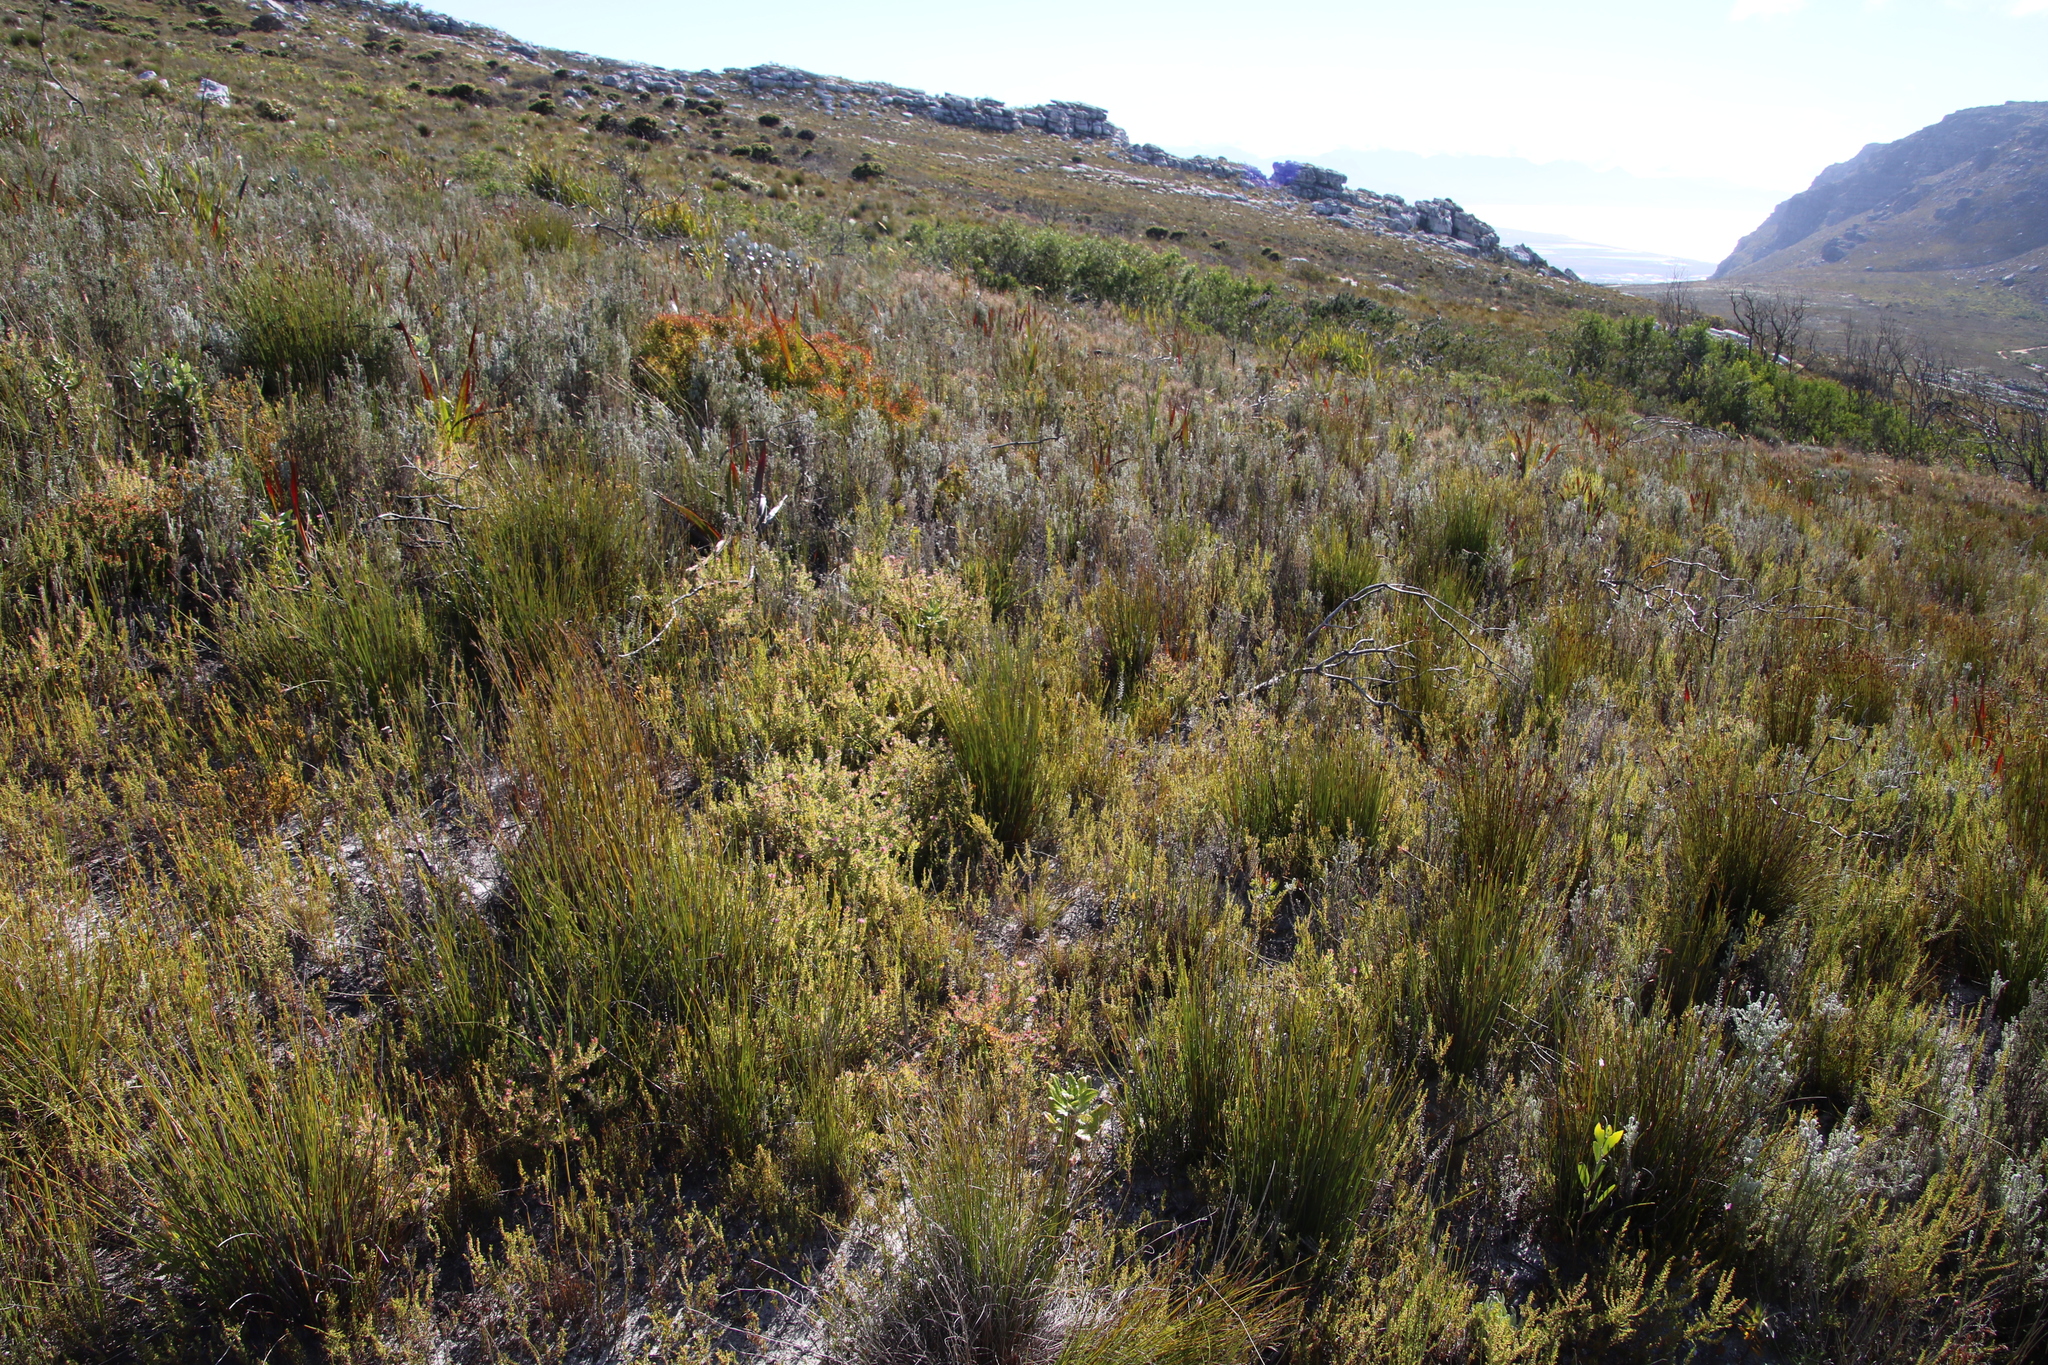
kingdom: Plantae
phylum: Tracheophyta
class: Magnoliopsida
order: Proteales
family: Proteaceae
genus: Diastella
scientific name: Diastella divaricata
